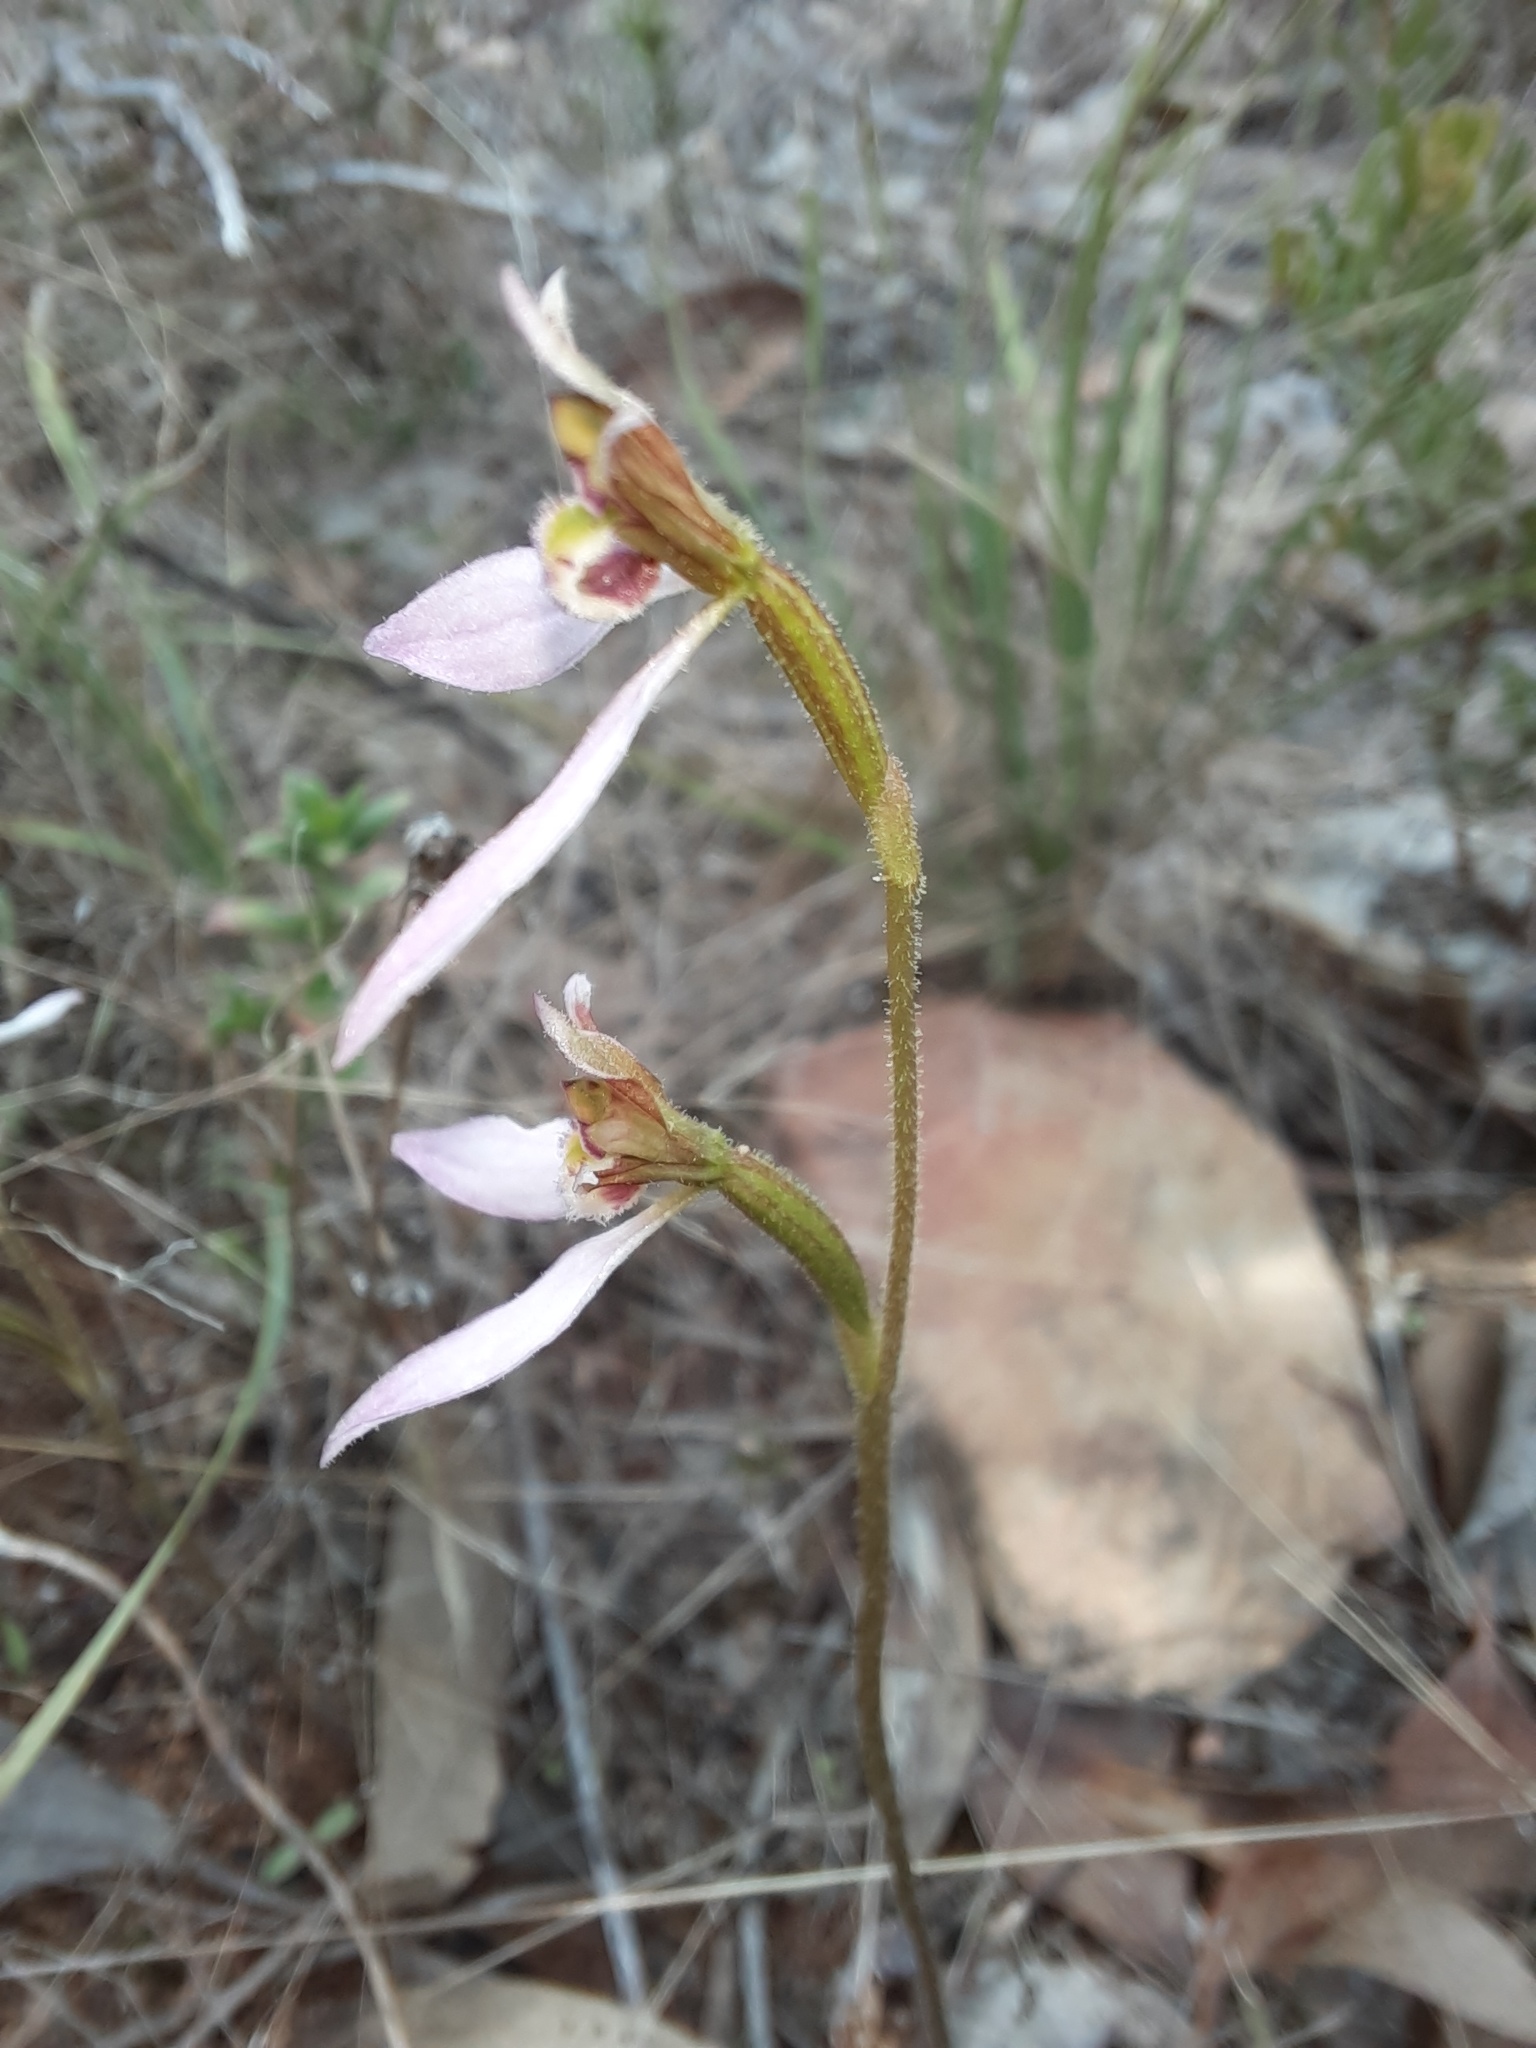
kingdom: Plantae
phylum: Tracheophyta
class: Liliopsida
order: Asparagales
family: Orchidaceae
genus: Eriochilus
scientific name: Eriochilus cucullatus
